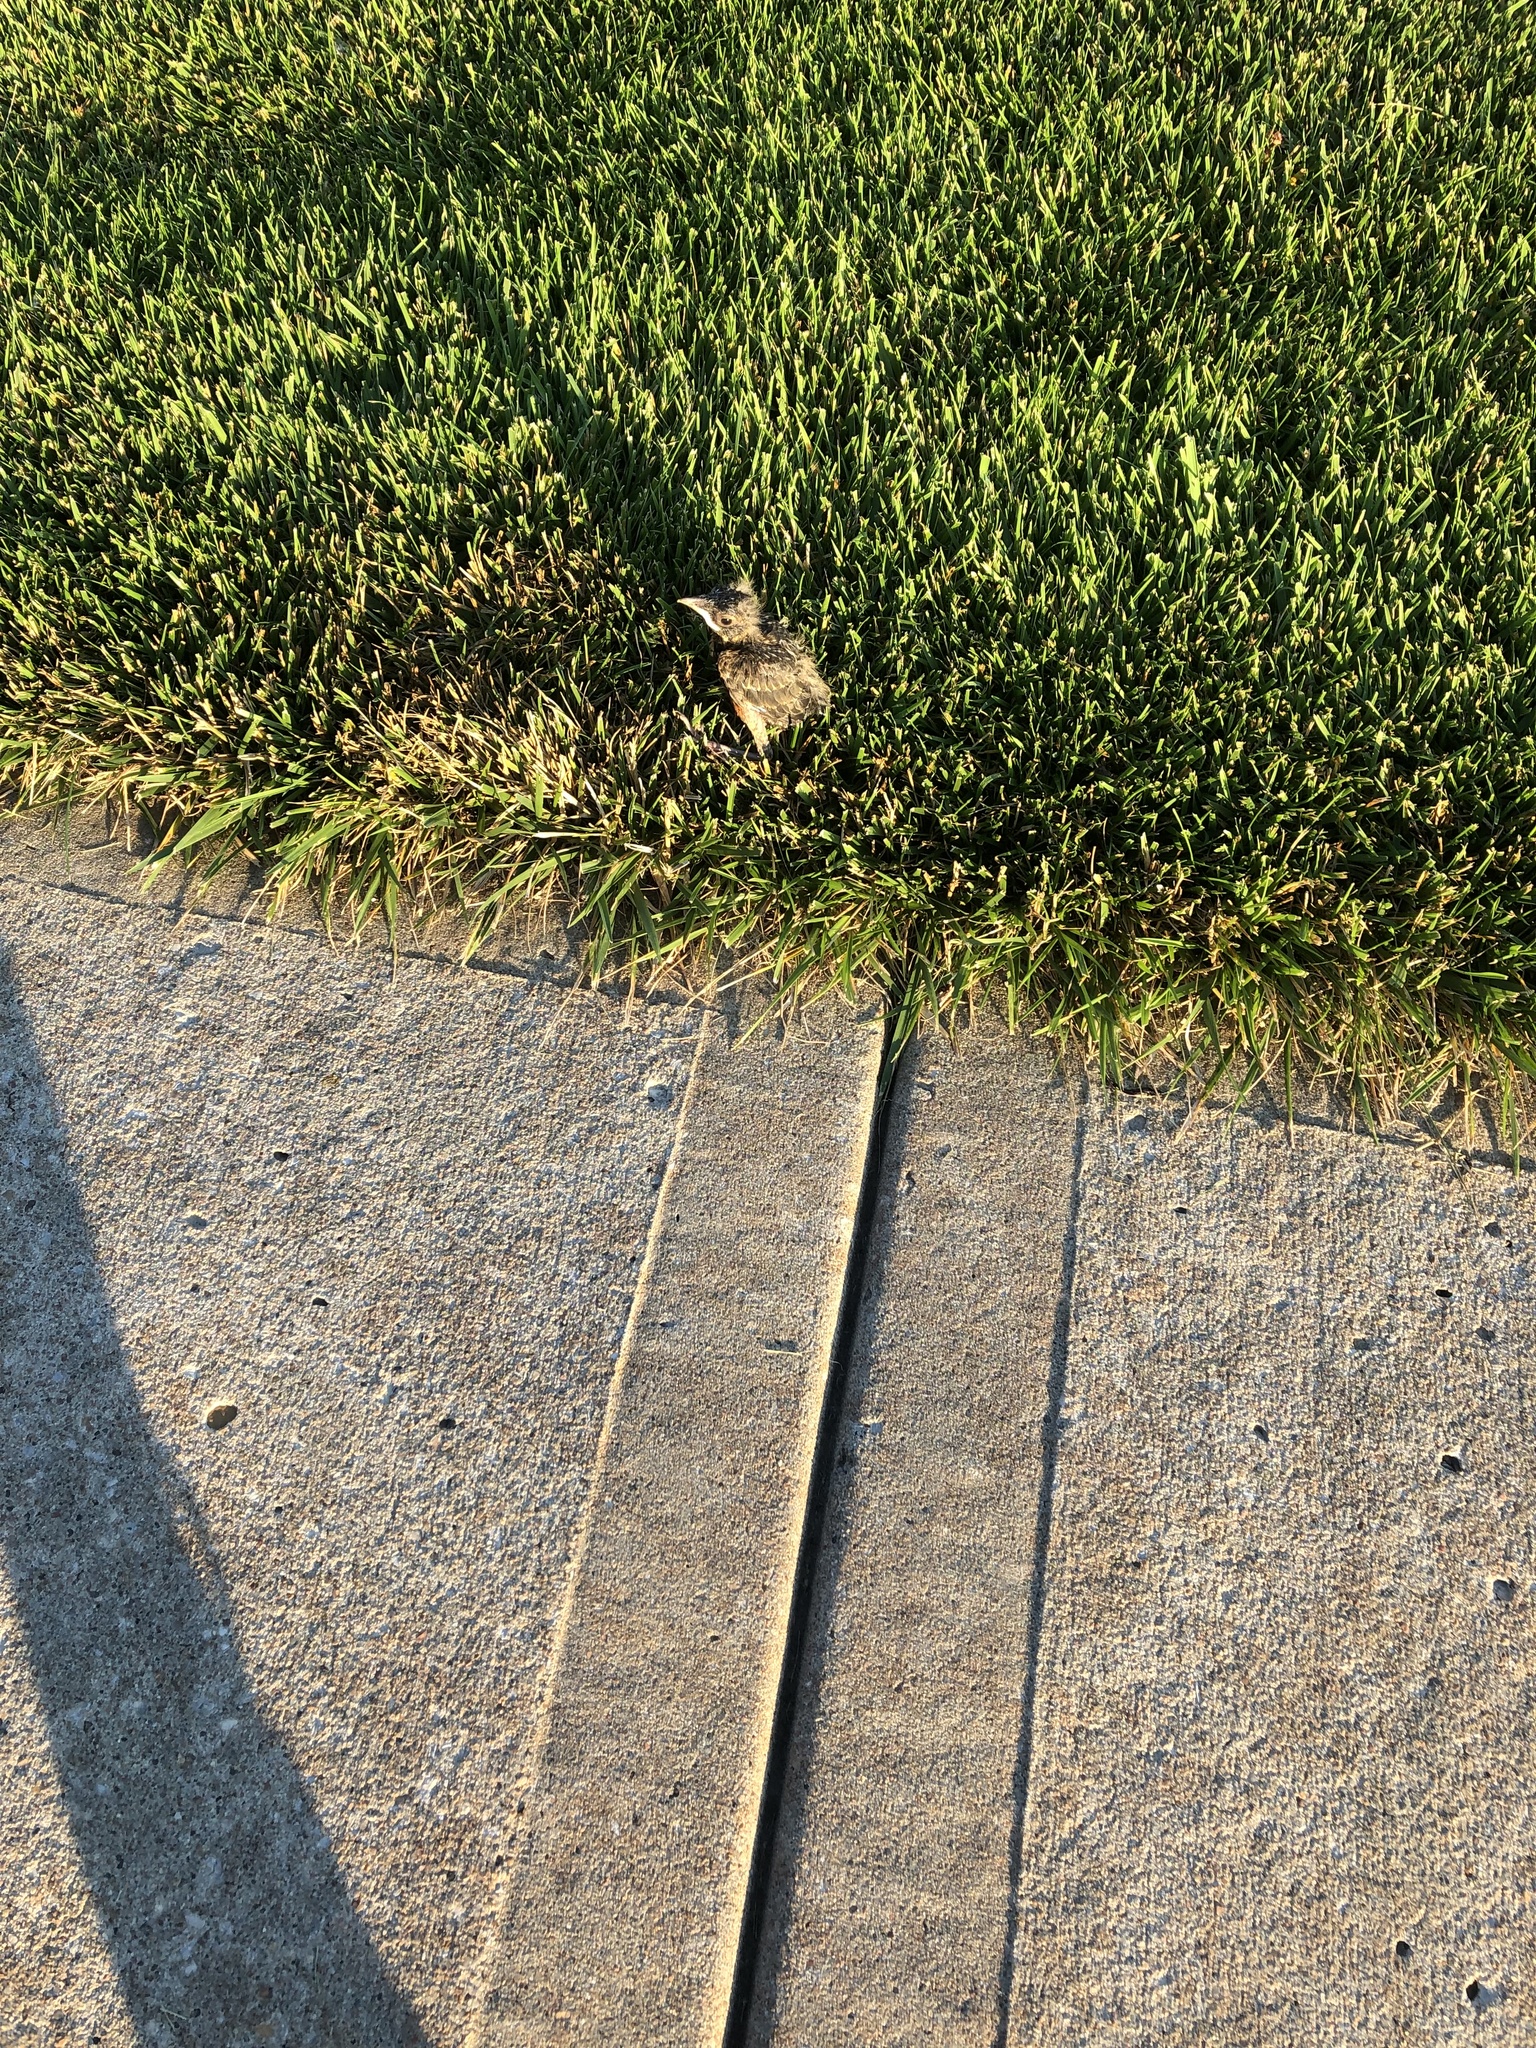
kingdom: Animalia
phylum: Chordata
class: Aves
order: Passeriformes
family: Turdidae
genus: Turdus
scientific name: Turdus migratorius
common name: American robin
